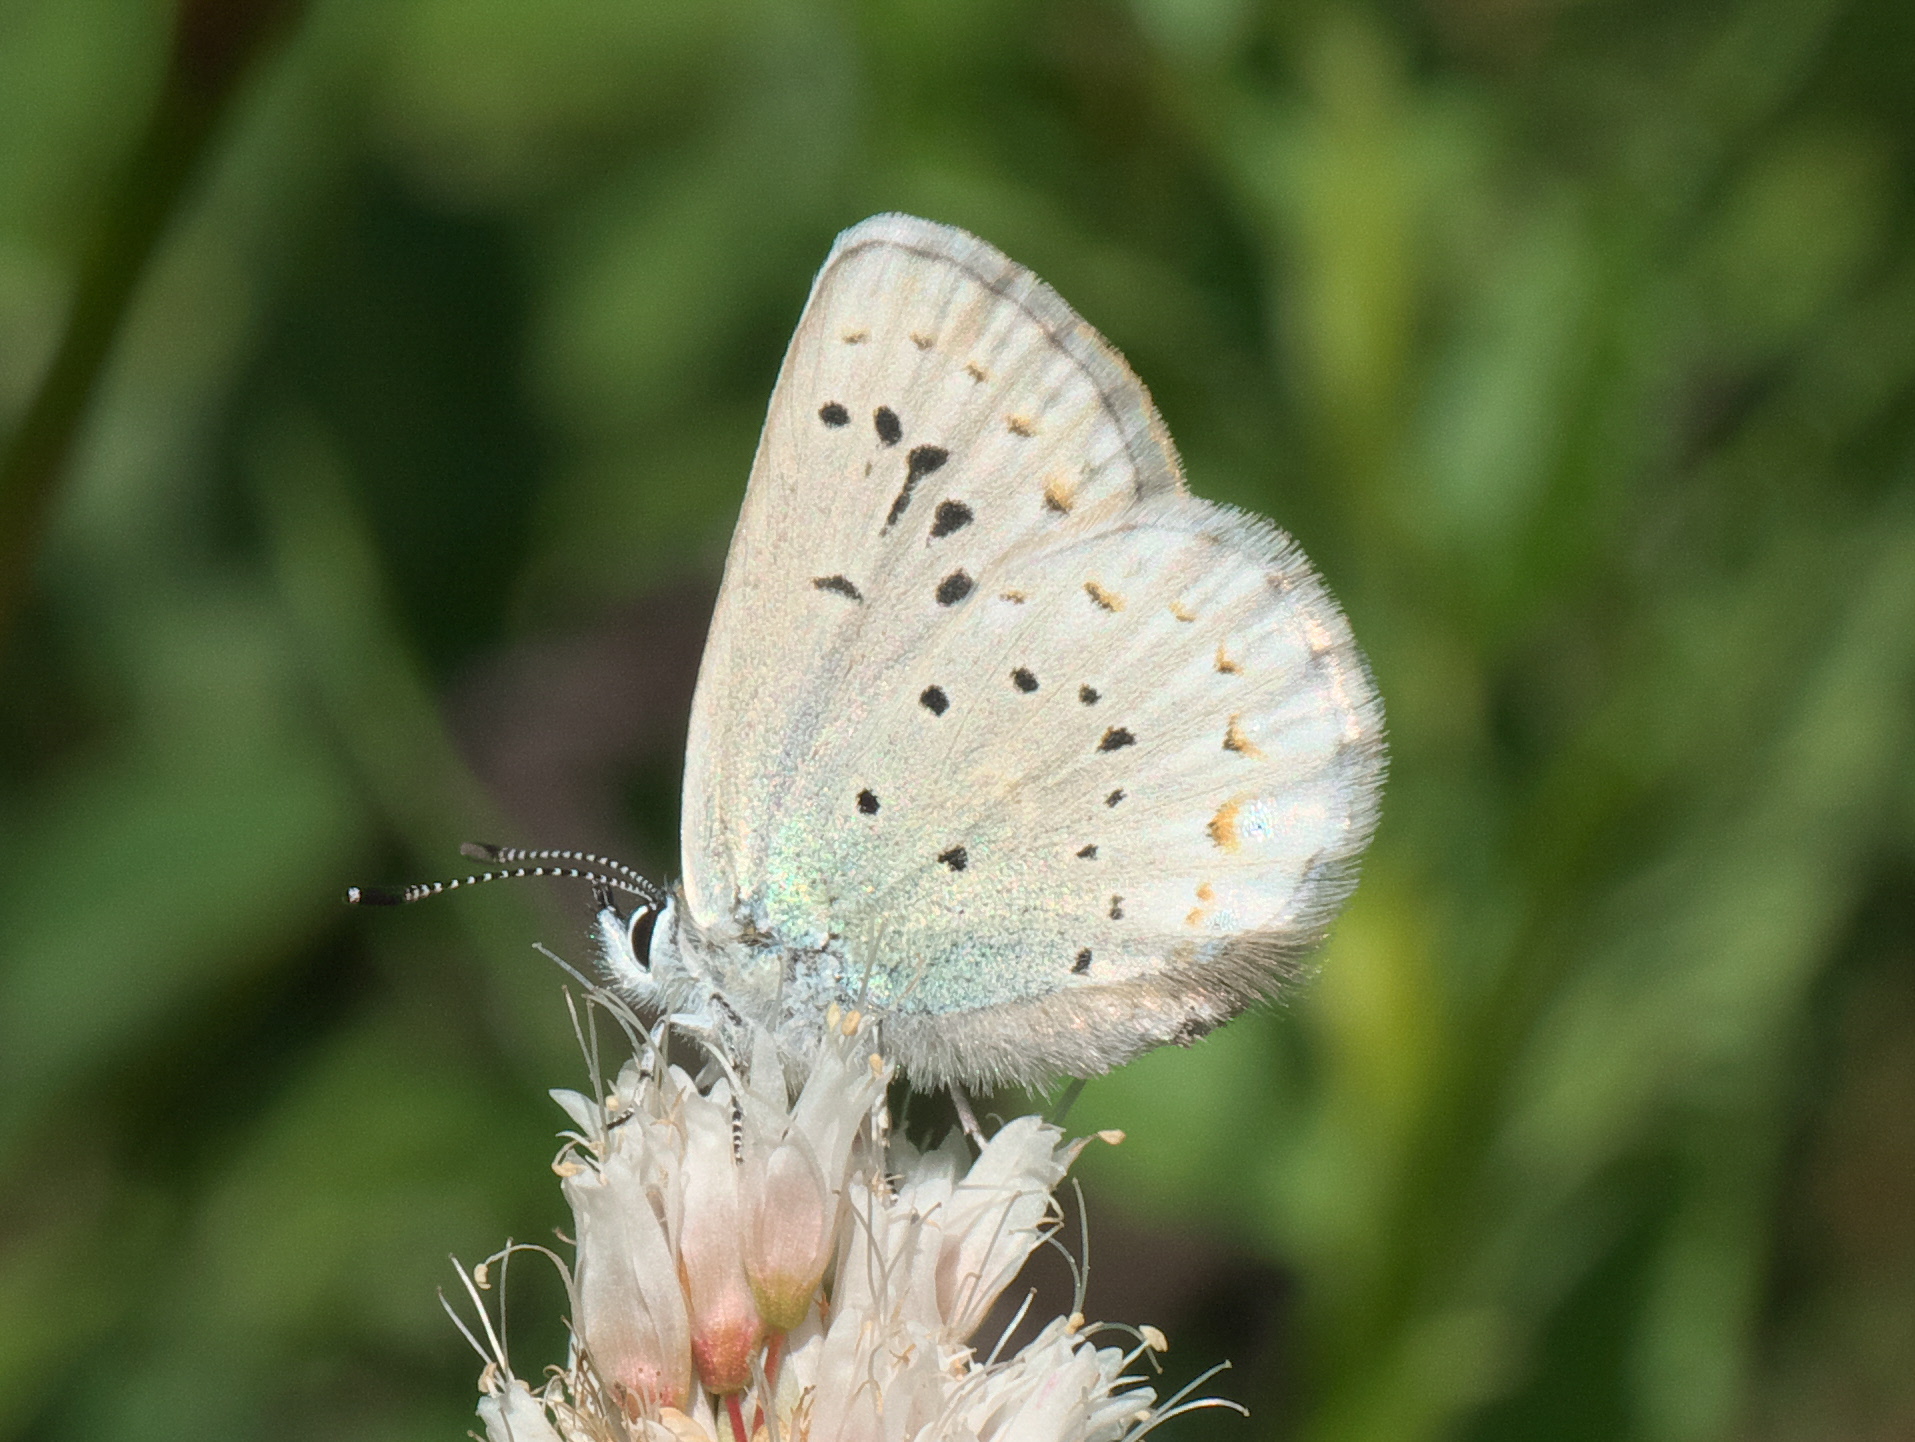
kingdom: Animalia
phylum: Arthropoda
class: Insecta
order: Lepidoptera
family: Lycaenidae
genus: Lycaeides
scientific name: Lycaeides anna
